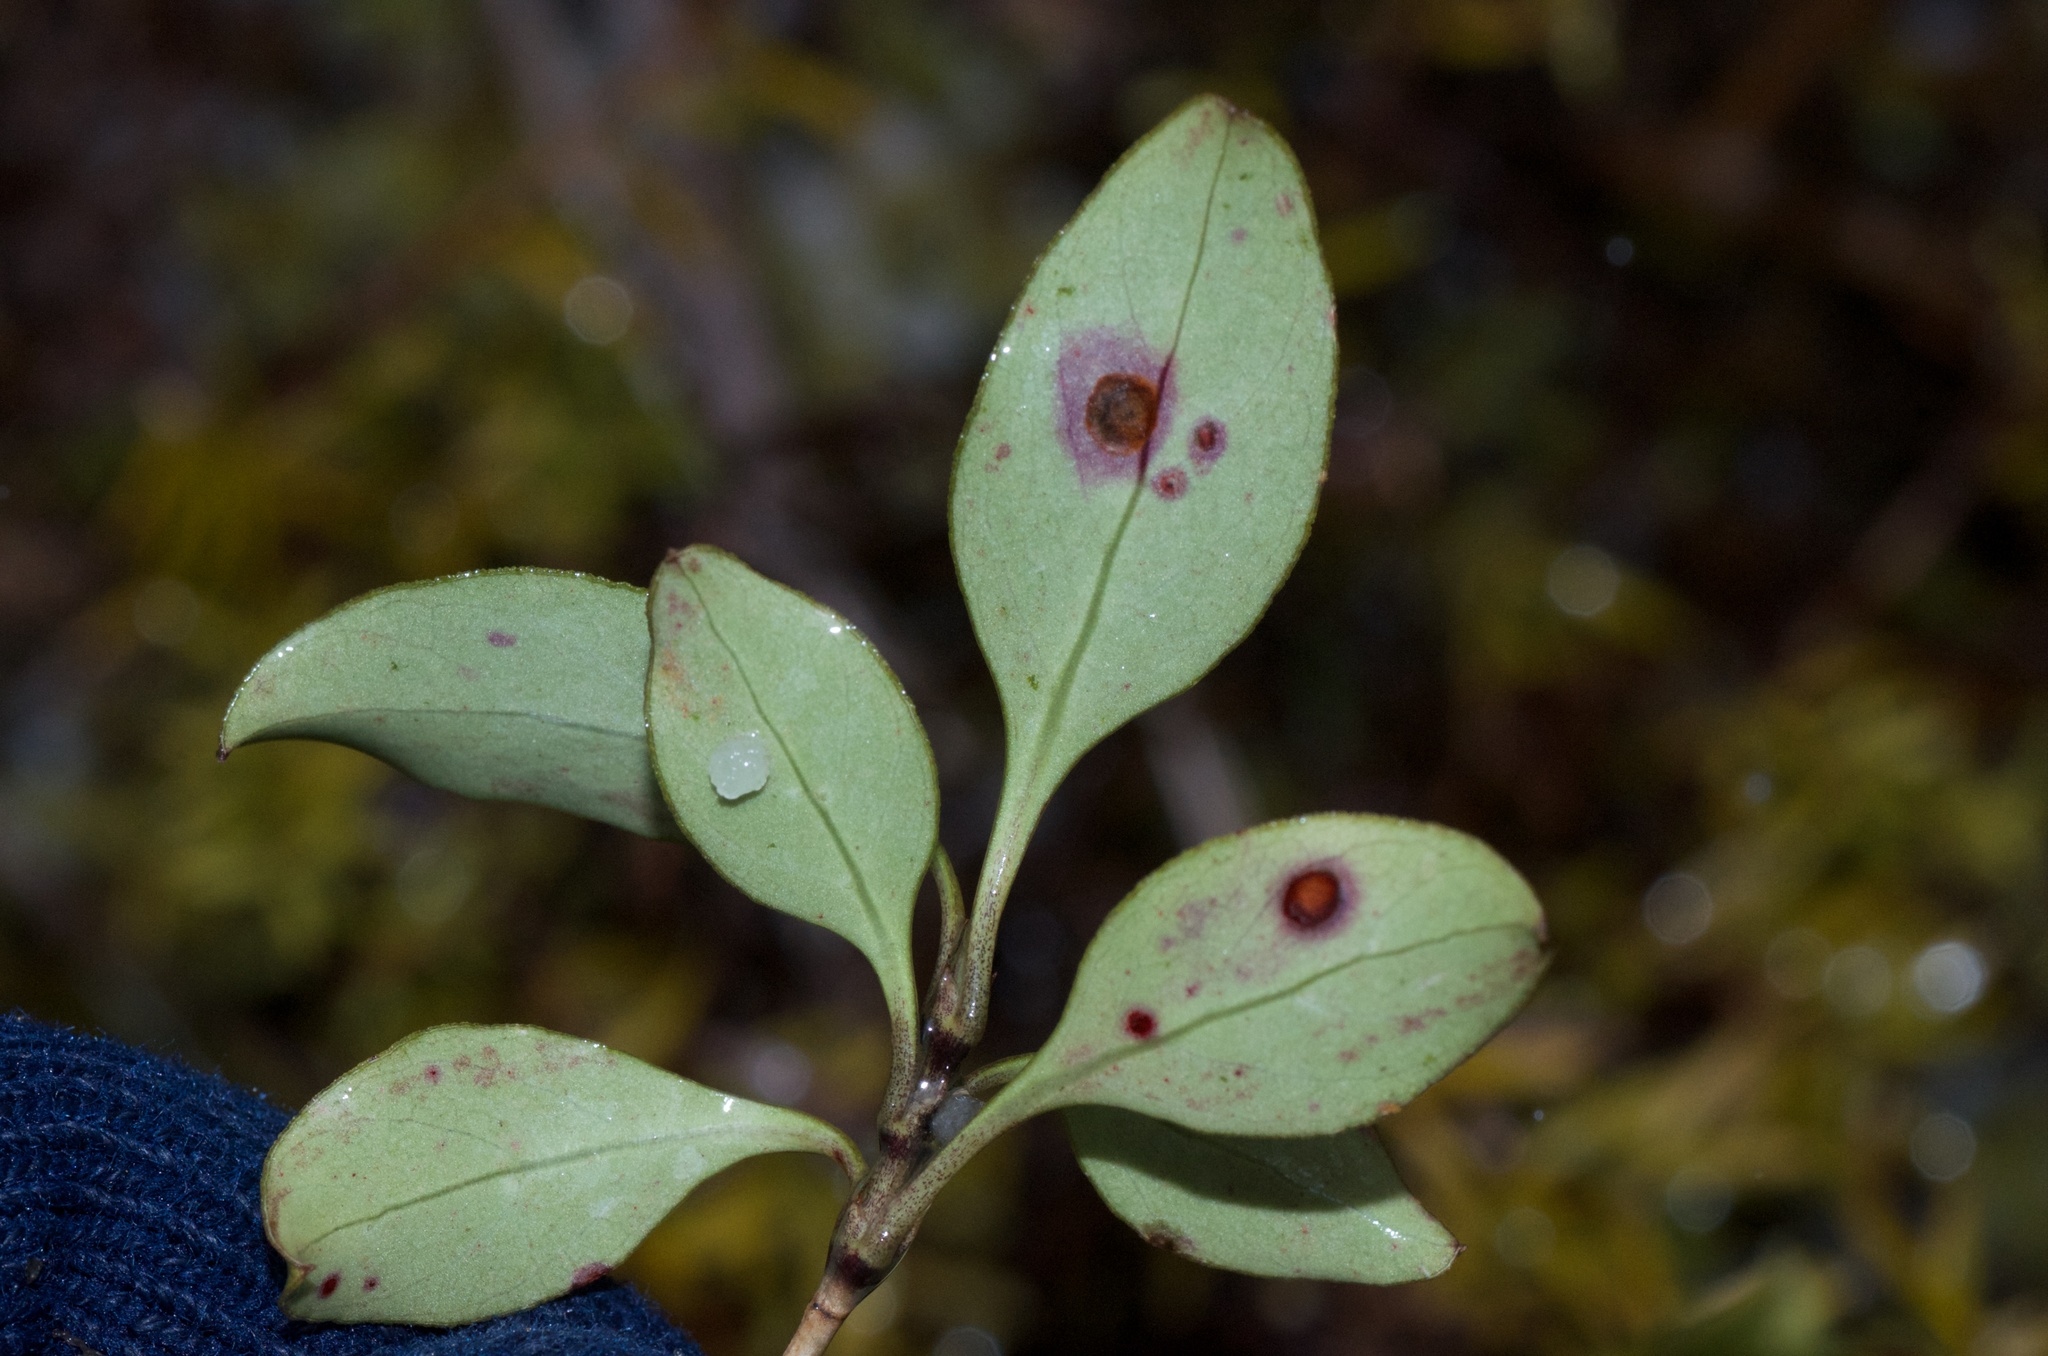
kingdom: Plantae
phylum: Tracheophyta
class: Magnoliopsida
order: Gentianales
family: Rubiaceae
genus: Coprosma
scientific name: Coprosma foetidissima
